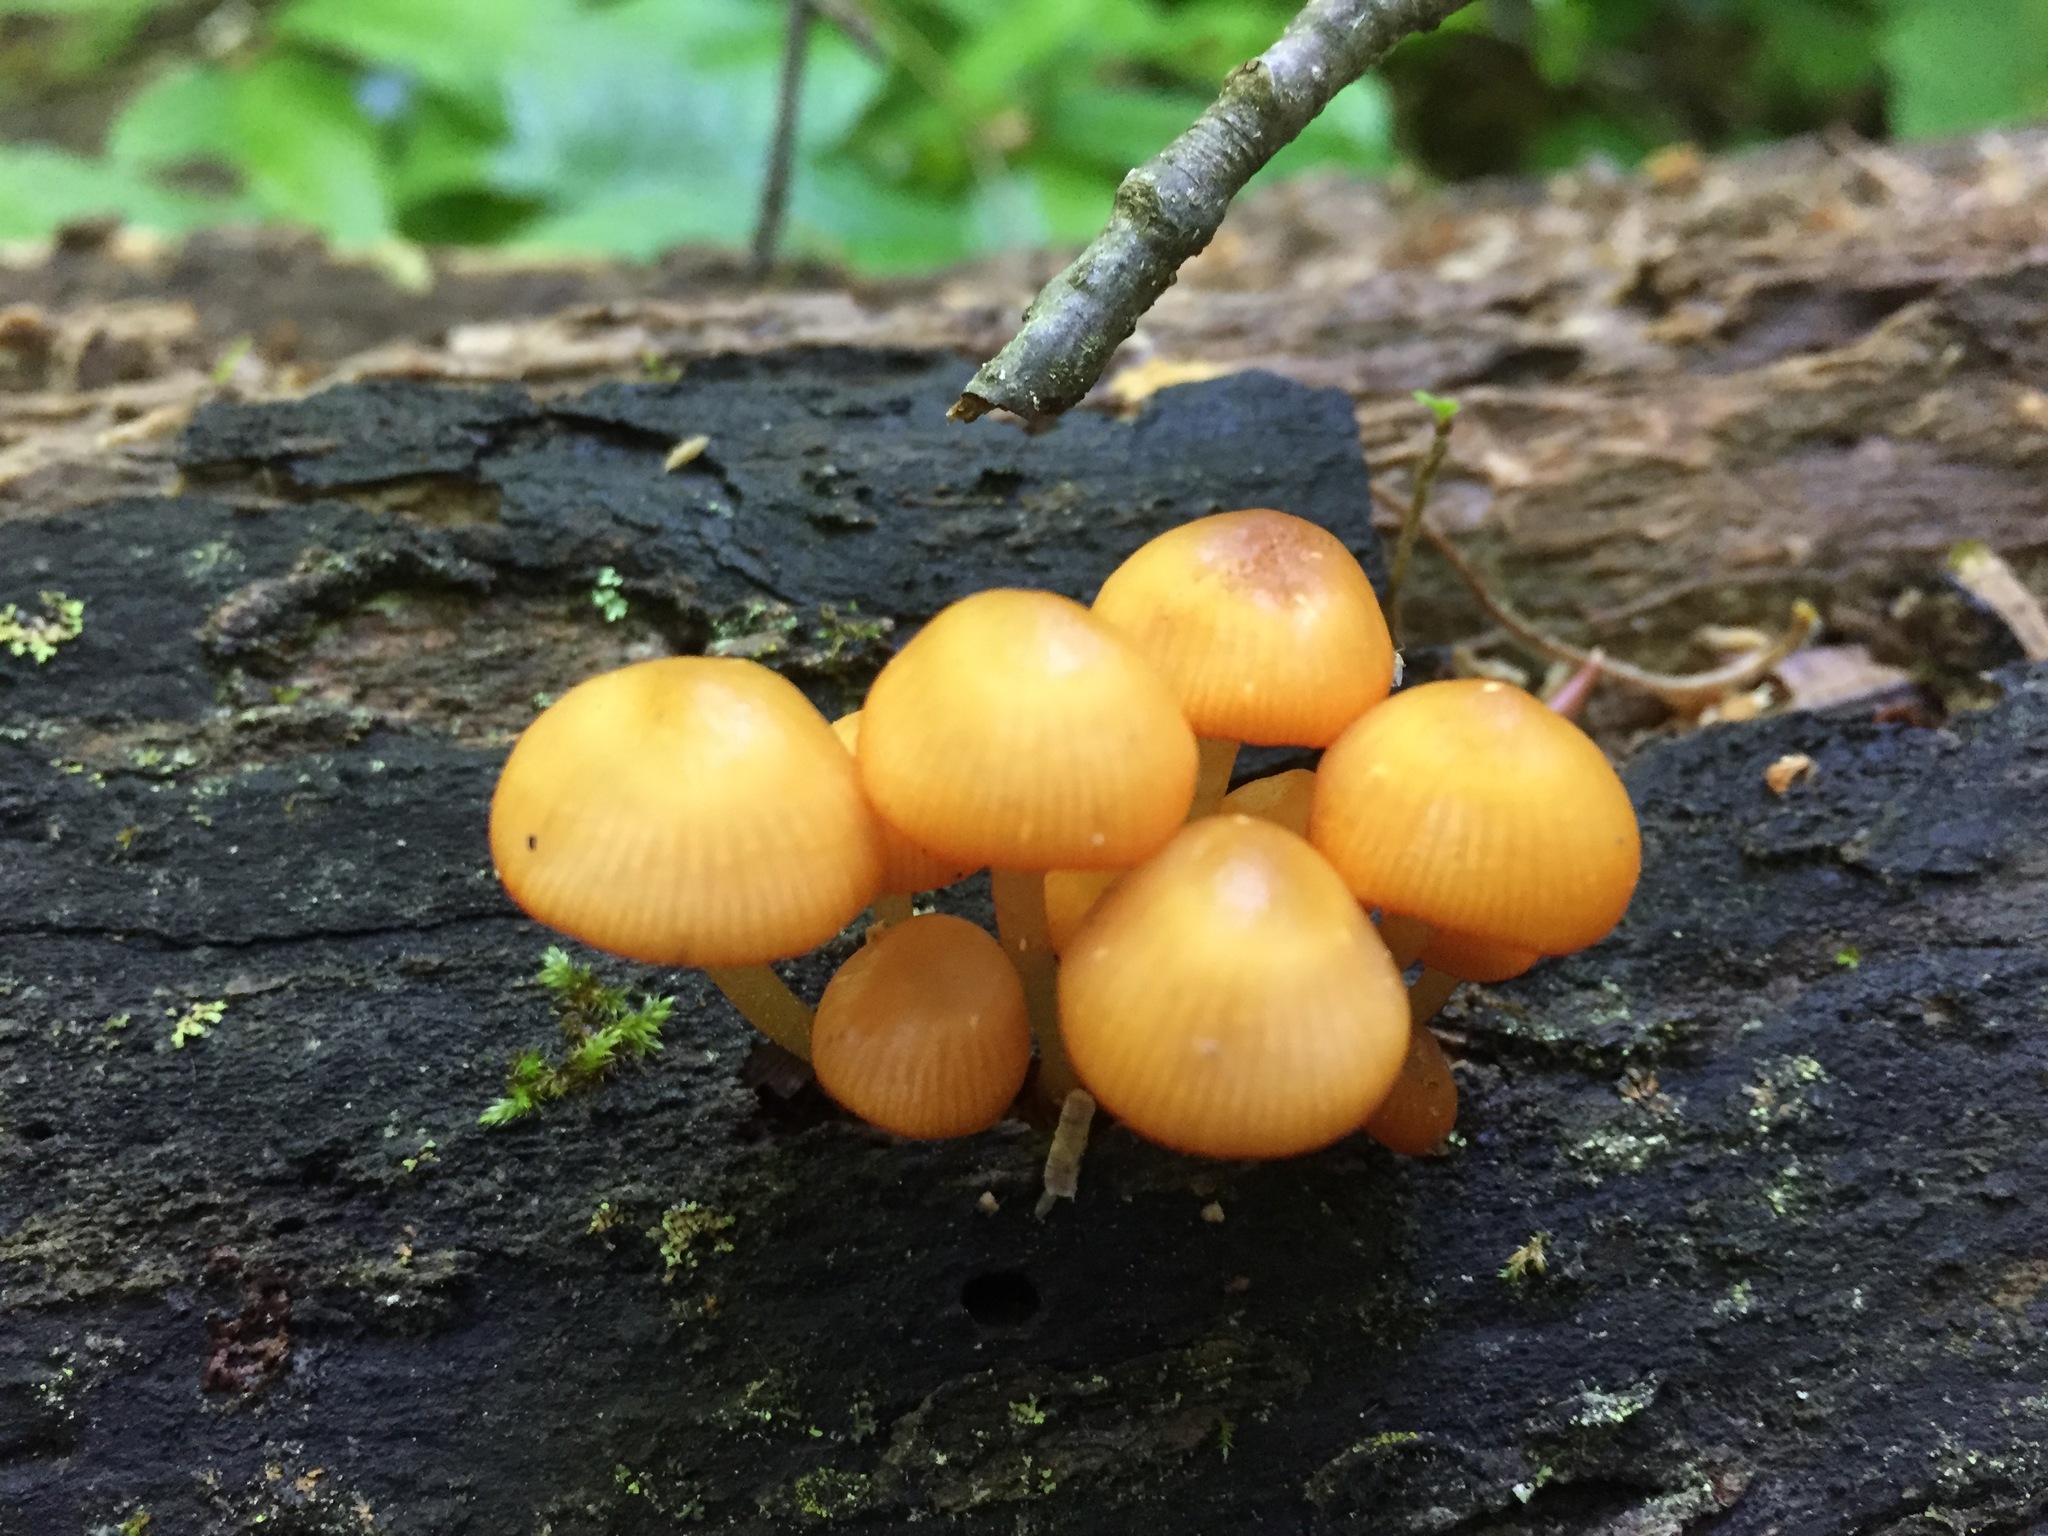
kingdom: Fungi
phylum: Basidiomycota
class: Agaricomycetes
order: Agaricales
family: Mycenaceae
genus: Mycena
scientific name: Mycena leaiana
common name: Orange mycena
